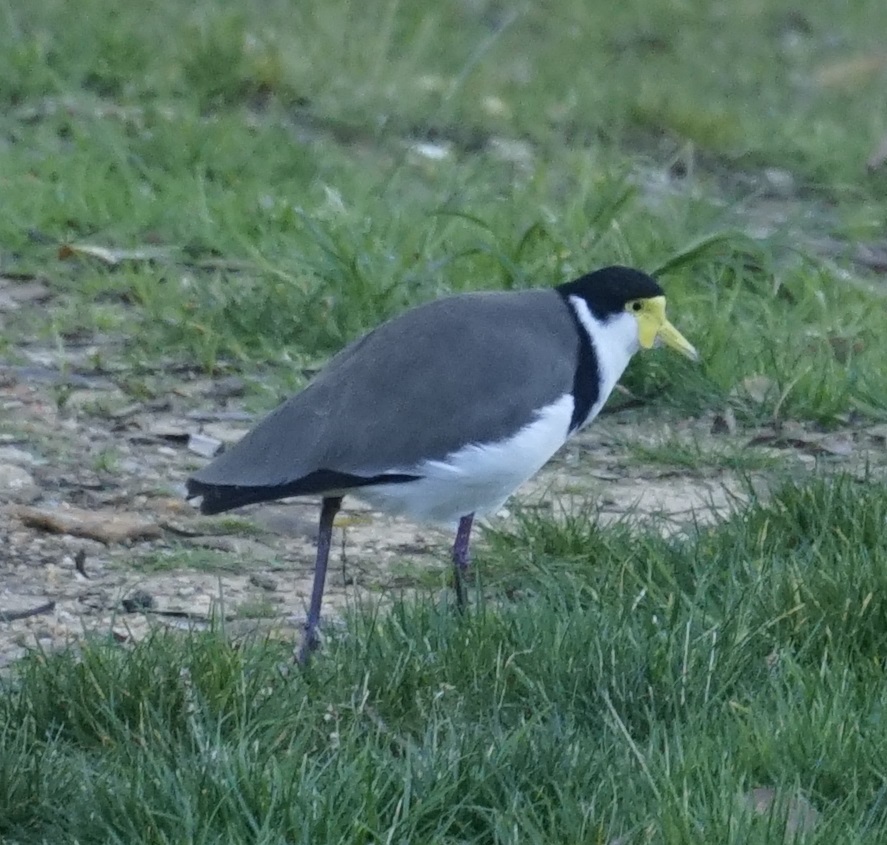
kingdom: Animalia
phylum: Chordata
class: Aves
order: Charadriiformes
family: Charadriidae
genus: Vanellus
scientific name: Vanellus miles
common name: Masked lapwing
